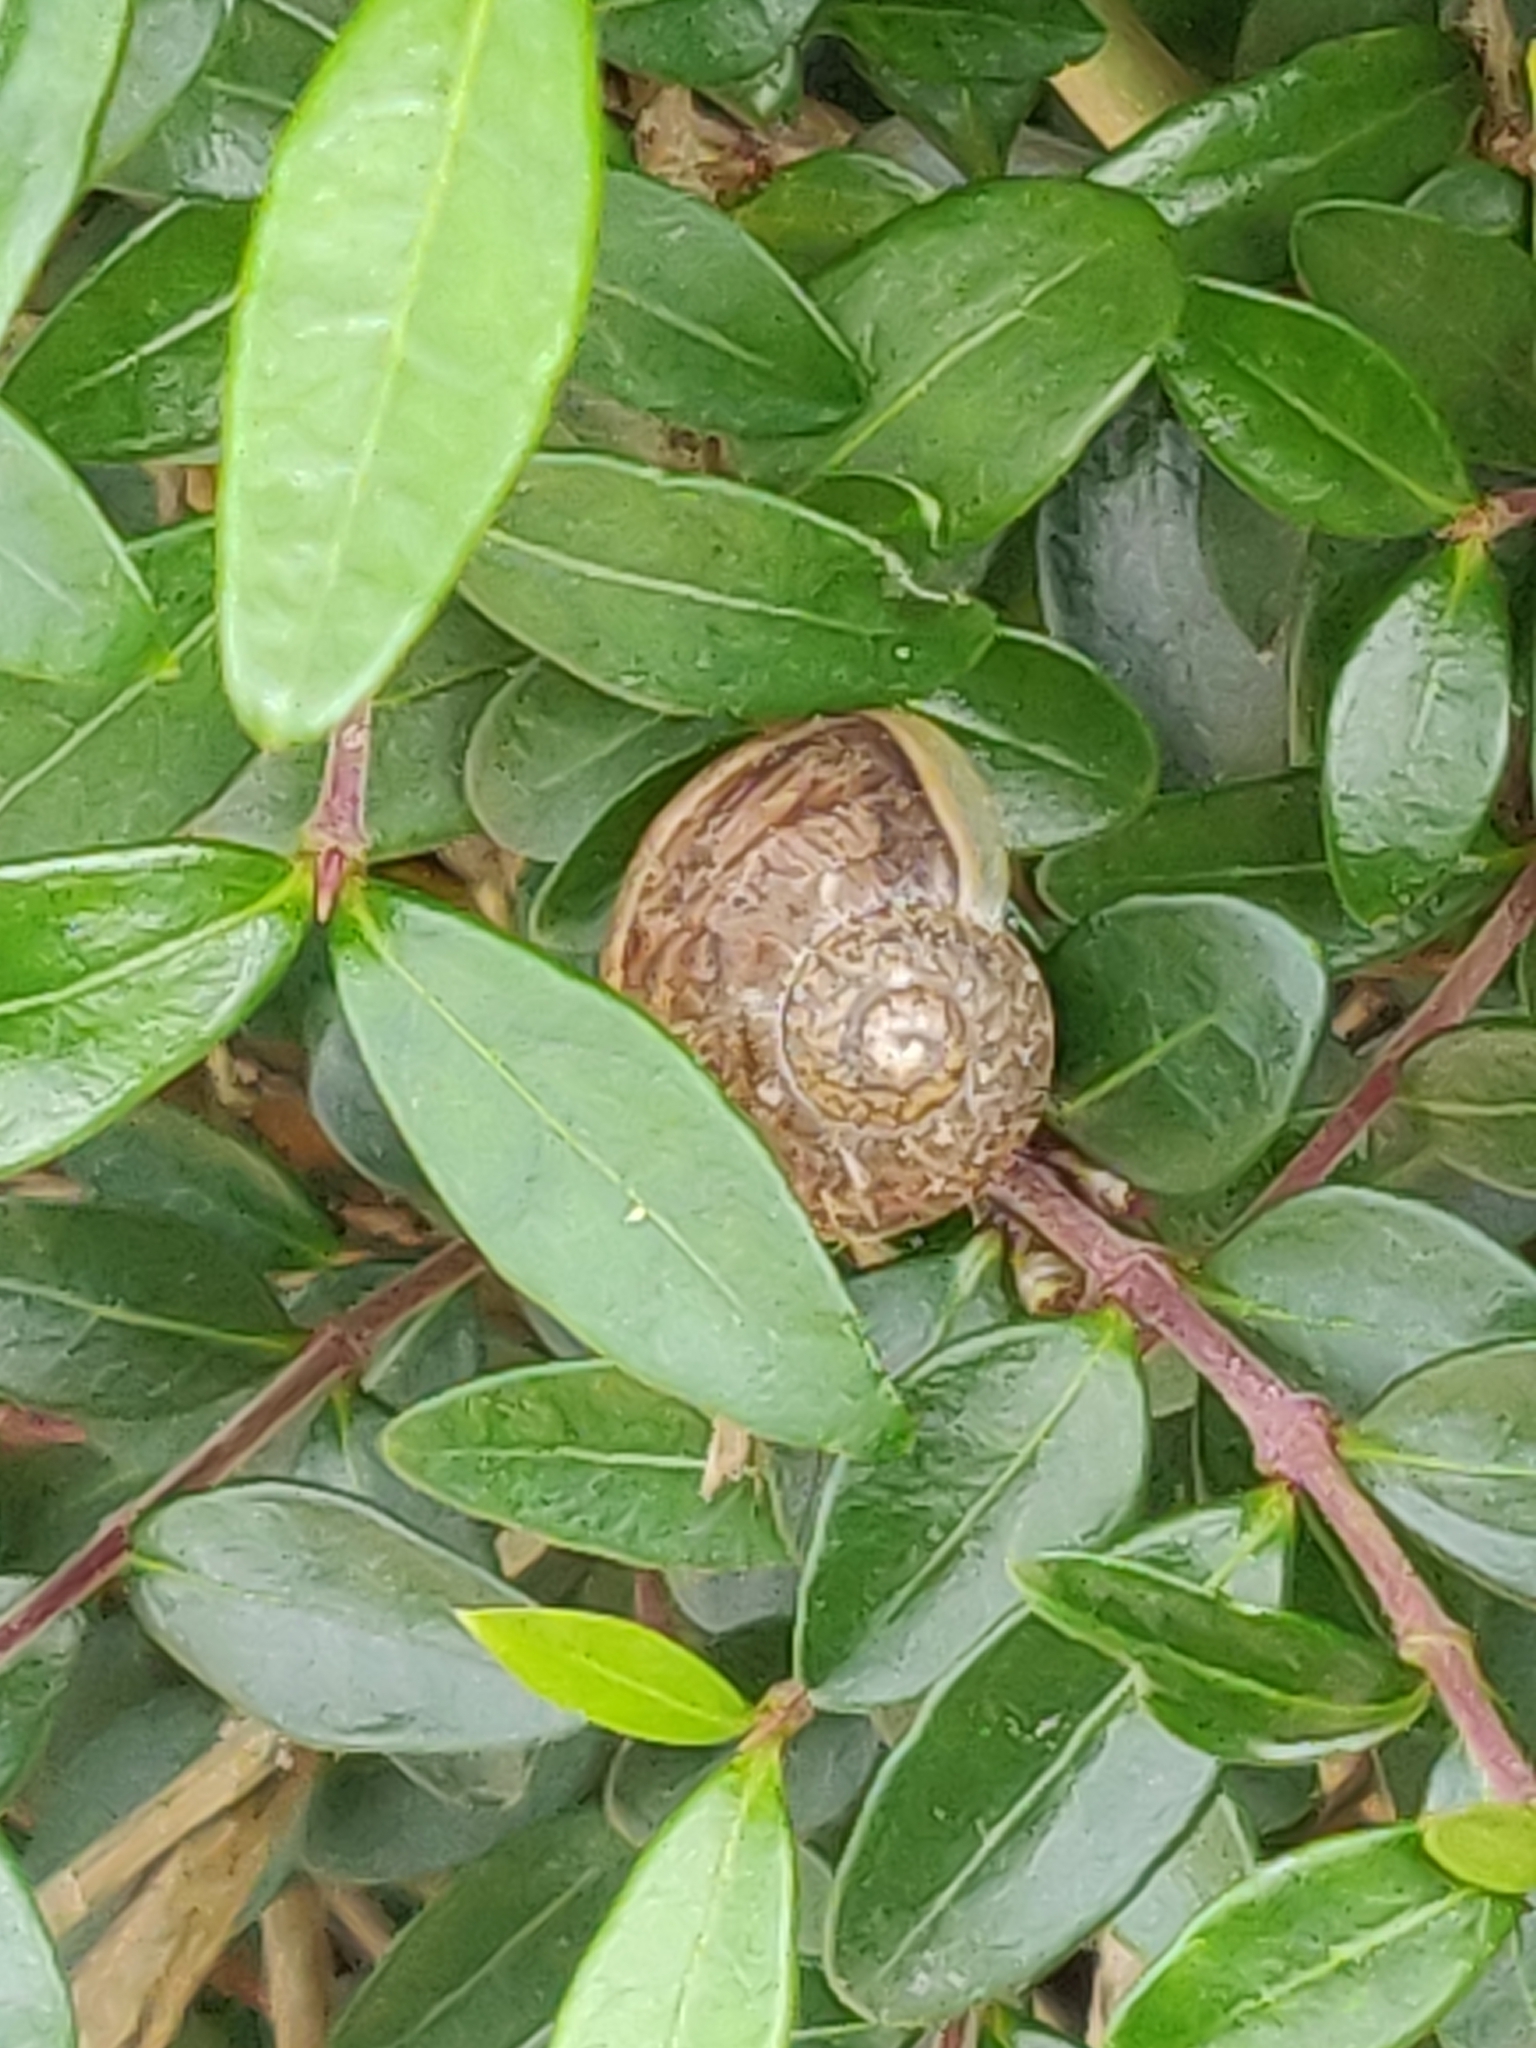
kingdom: Animalia
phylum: Mollusca
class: Gastropoda
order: Stylommatophora
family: Helicidae
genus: Cornu
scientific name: Cornu aspersum
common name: Brown garden snail
